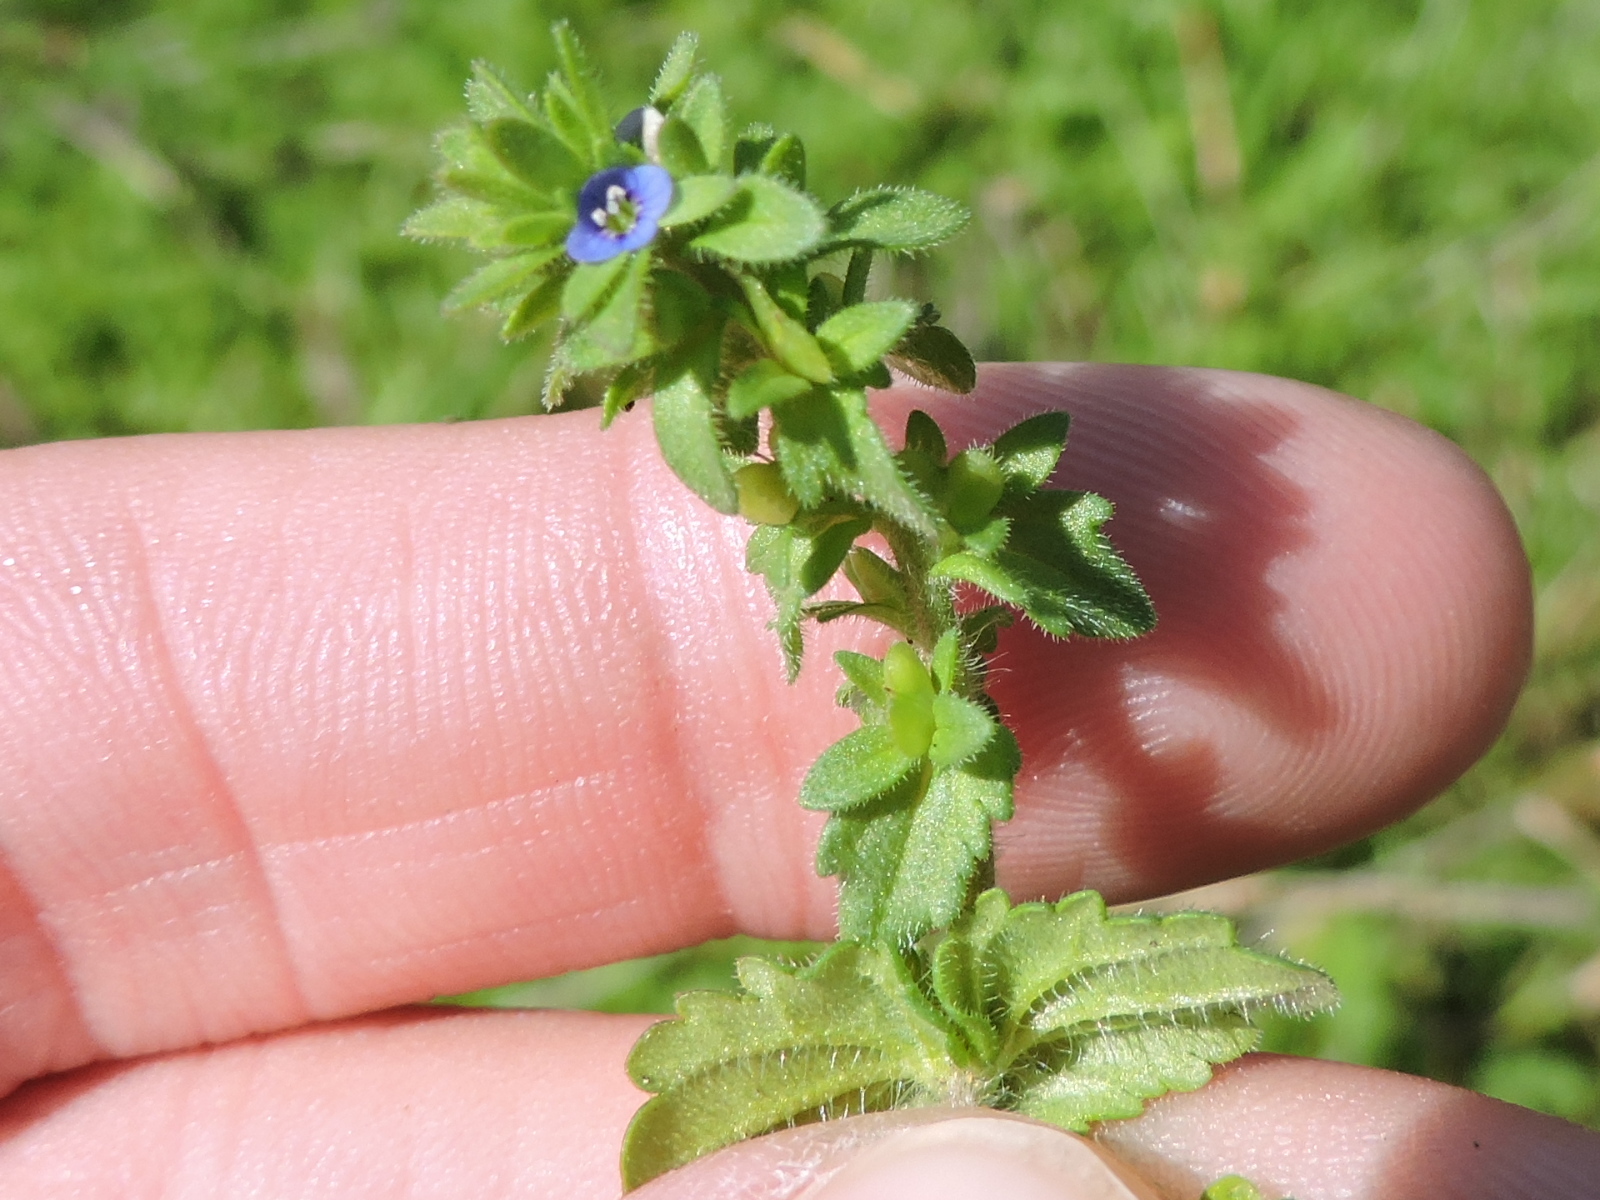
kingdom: Plantae
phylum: Tracheophyta
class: Magnoliopsida
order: Lamiales
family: Plantaginaceae
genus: Veronica
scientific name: Veronica arvensis
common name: Corn speedwell
